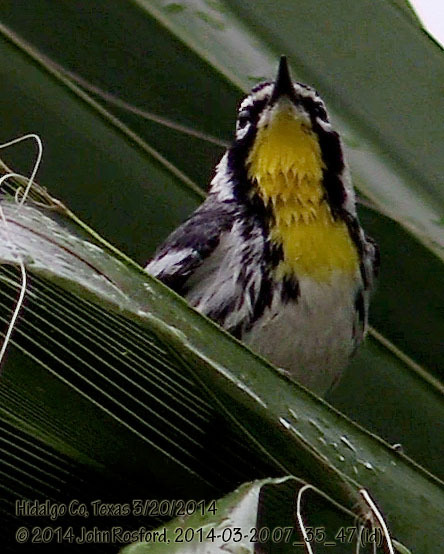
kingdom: Animalia
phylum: Chordata
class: Aves
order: Passeriformes
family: Parulidae
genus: Setophaga
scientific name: Setophaga dominica
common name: Yellow-throated warbler
